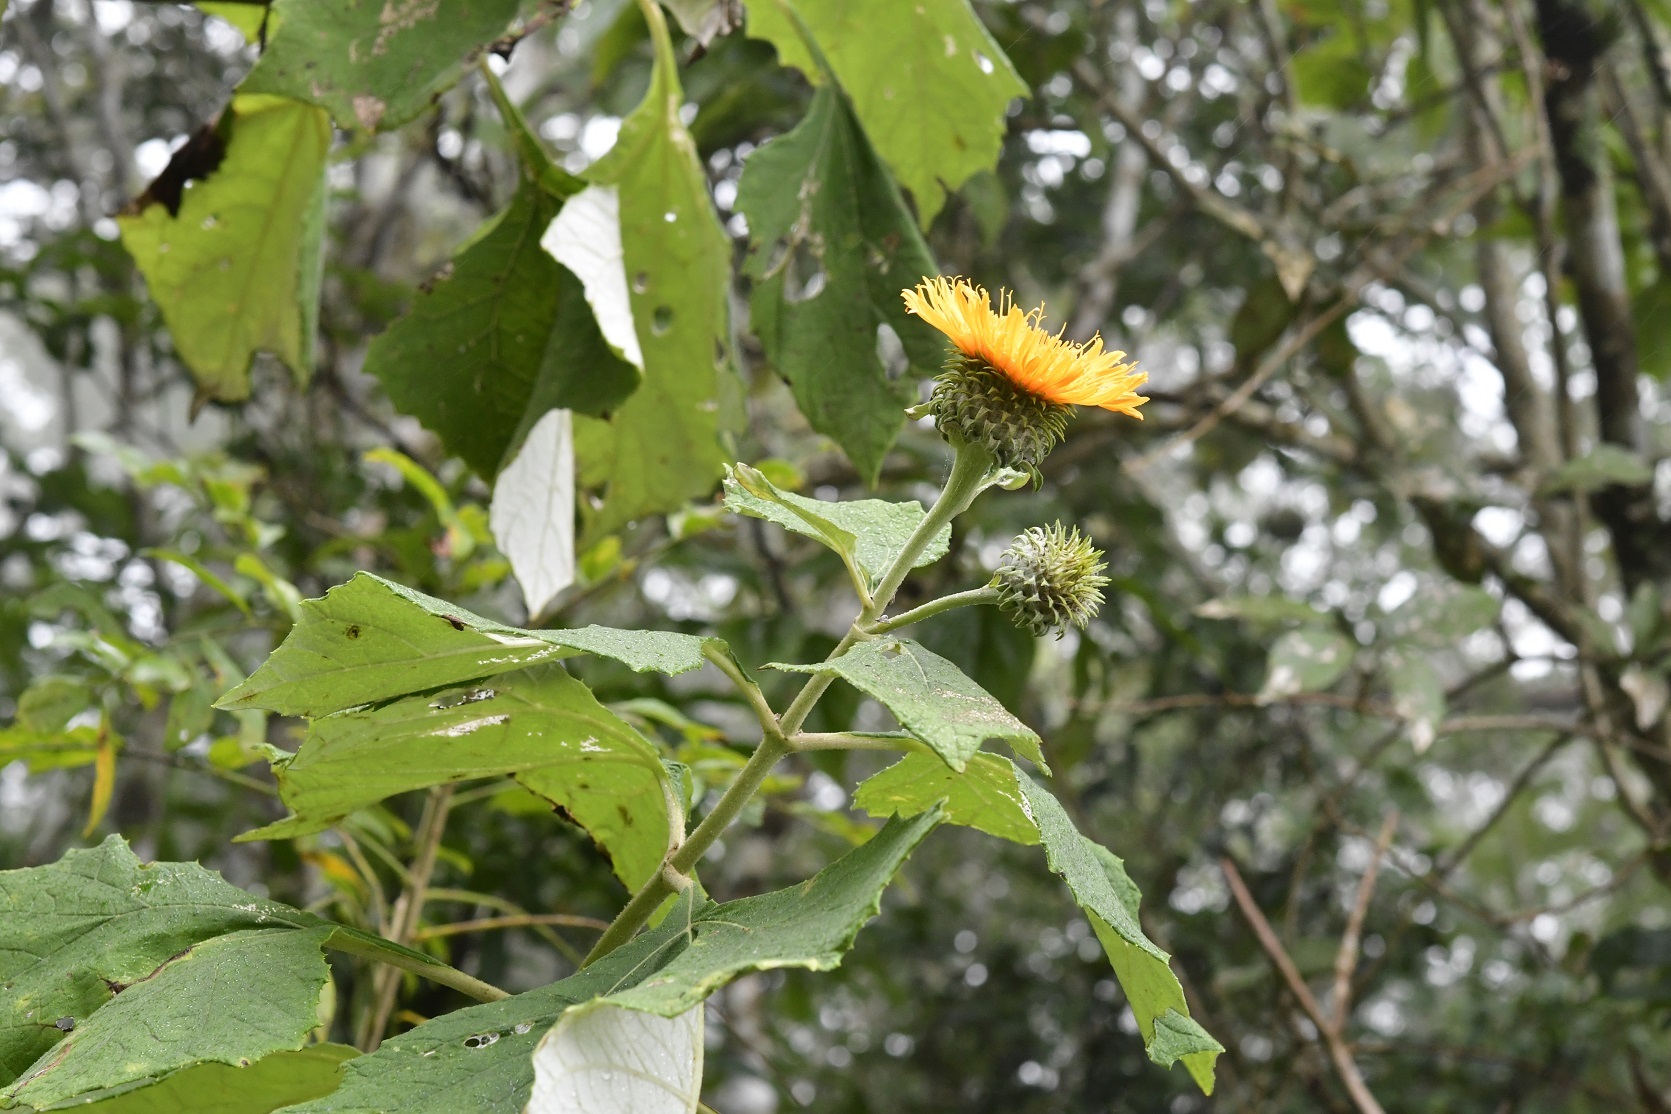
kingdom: Plantae
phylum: Tracheophyta
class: Magnoliopsida
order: Asterales
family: Asteraceae
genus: Sinclairia
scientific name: Sinclairia andrieuxii
